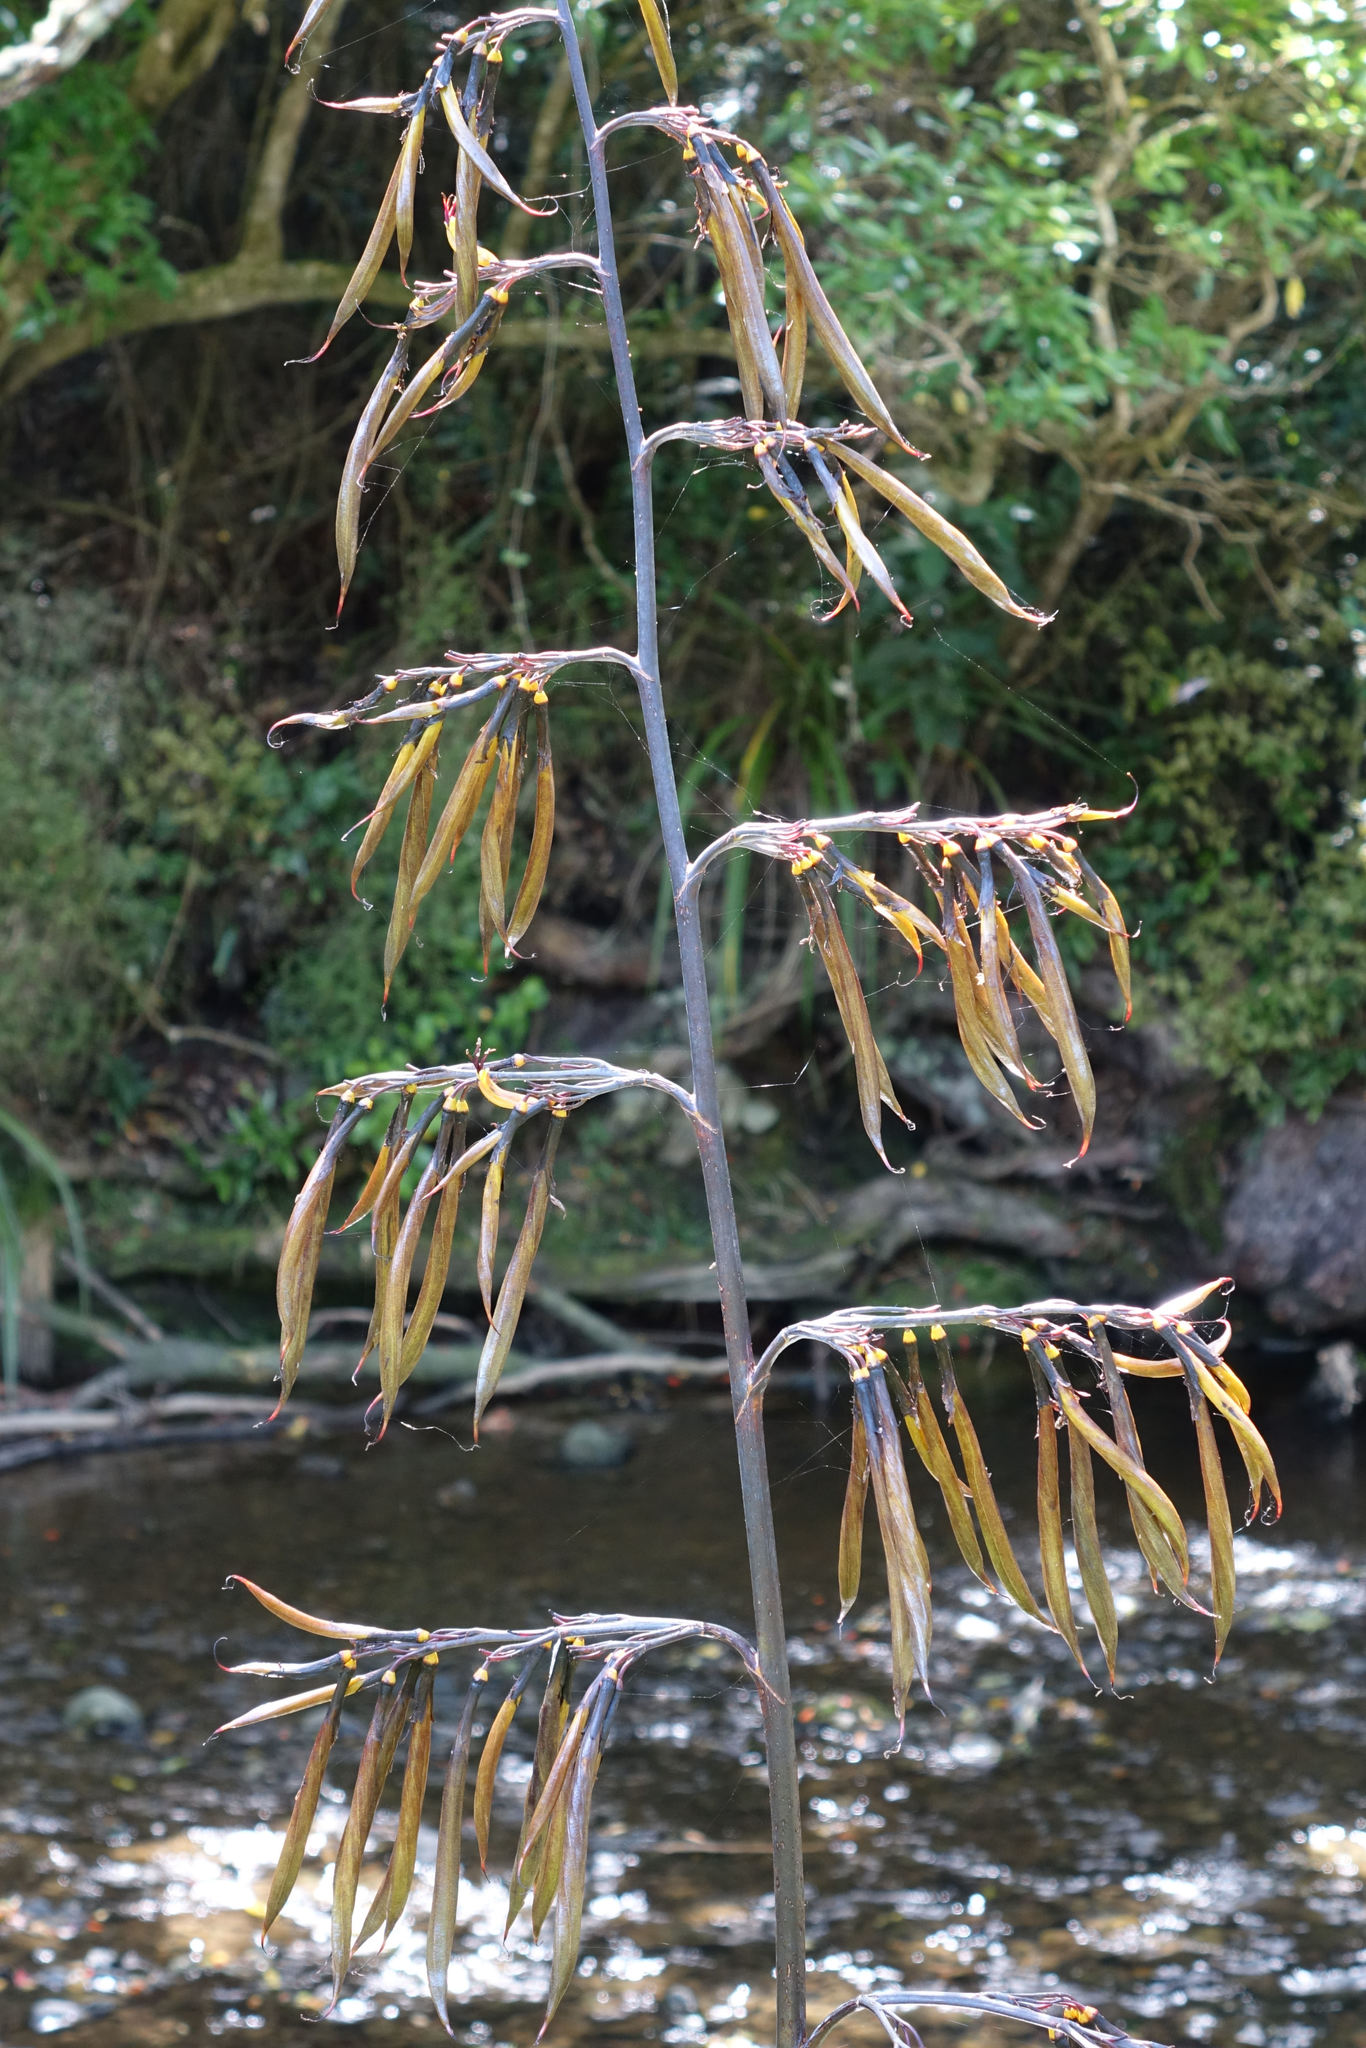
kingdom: Plantae
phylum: Tracheophyta
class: Liliopsida
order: Asparagales
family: Asphodelaceae
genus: Phormium
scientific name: Phormium colensoi
